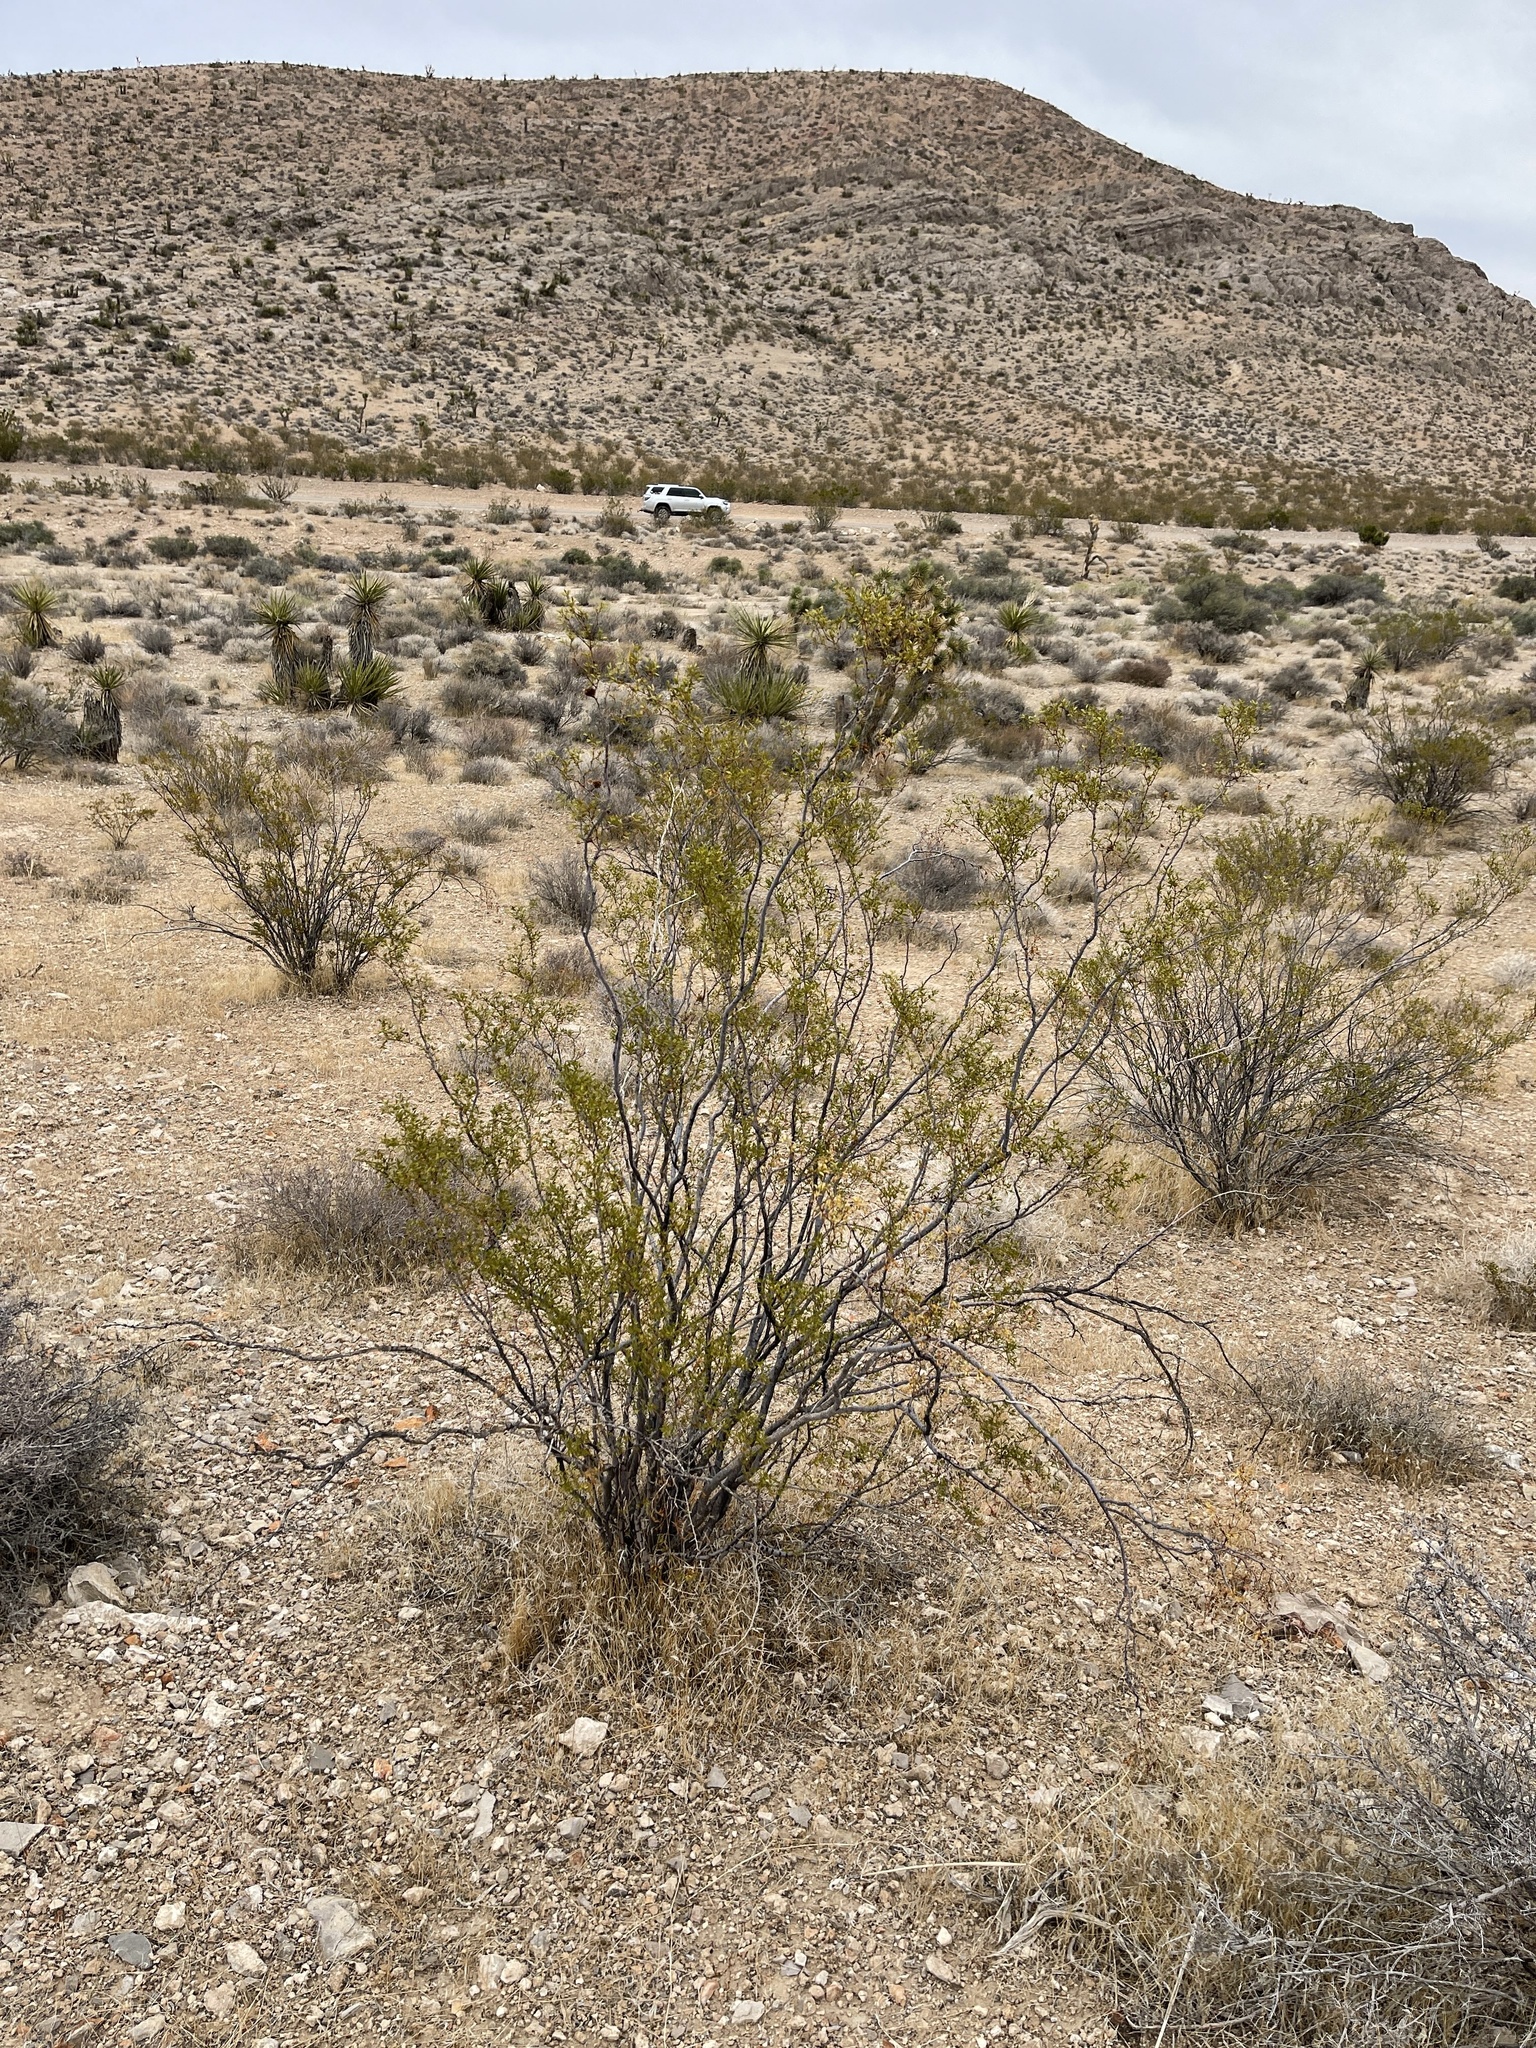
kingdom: Plantae
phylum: Tracheophyta
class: Magnoliopsida
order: Zygophyllales
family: Zygophyllaceae
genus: Larrea
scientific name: Larrea tridentata
